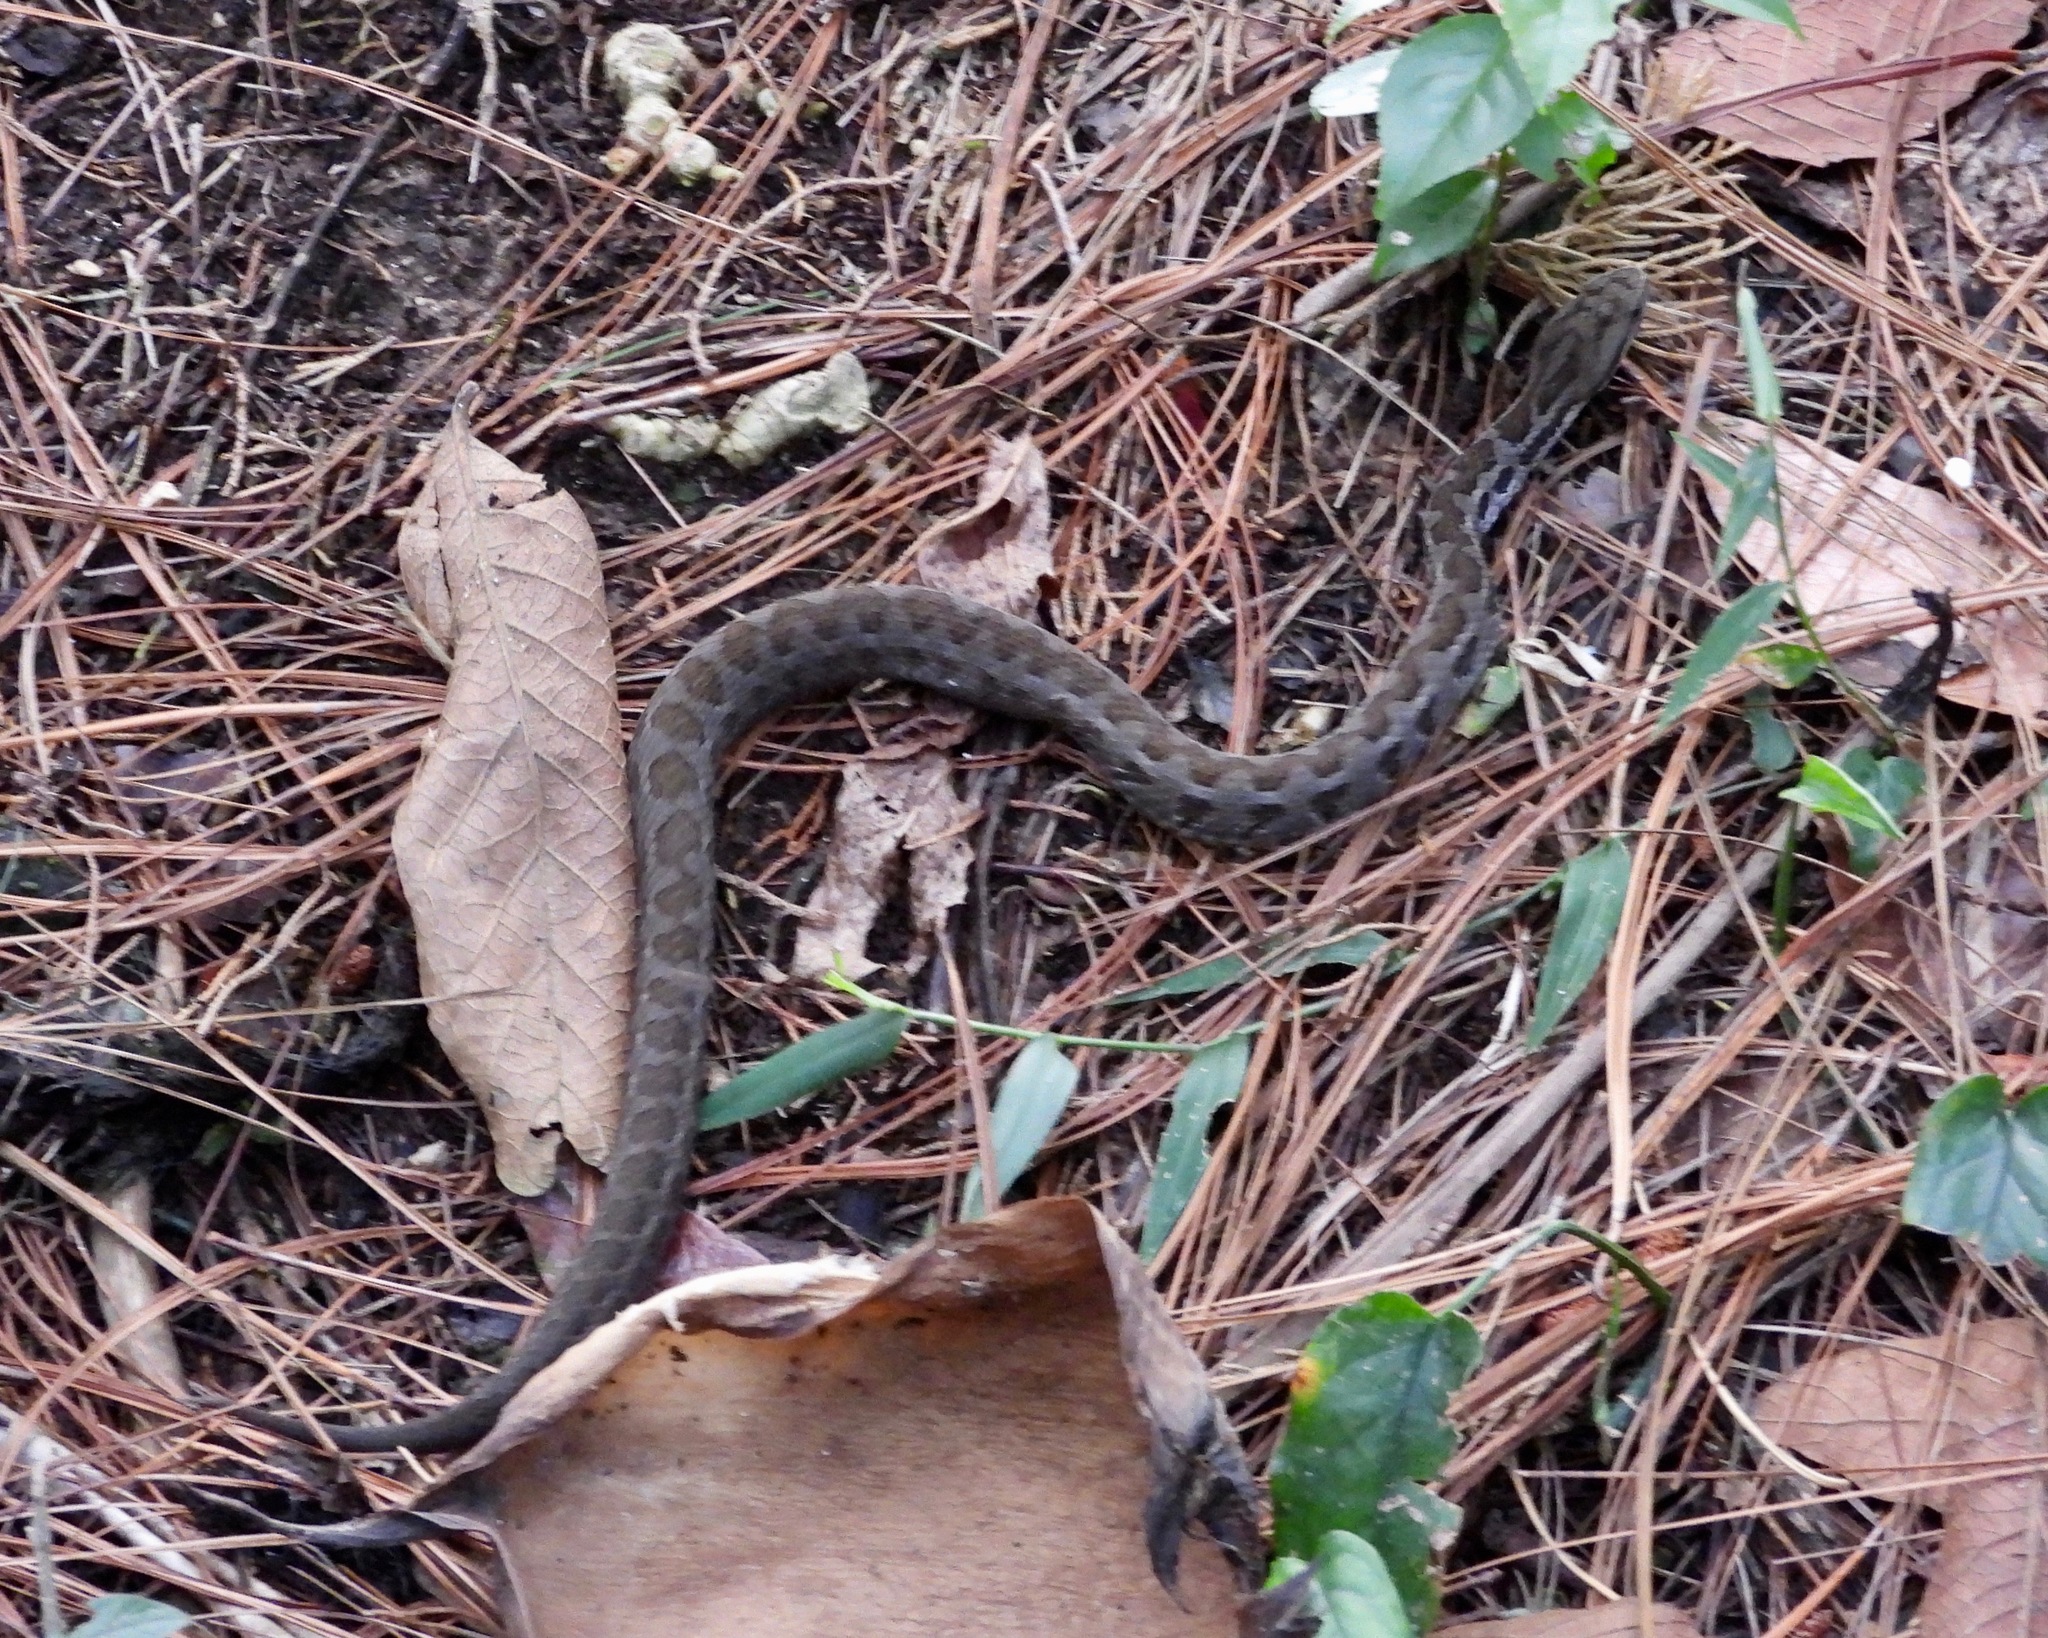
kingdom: Animalia
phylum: Chordata
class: Squamata
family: Viperidae
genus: Cerrophidion
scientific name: Cerrophidion godmani
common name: Godman's montane pit viper
